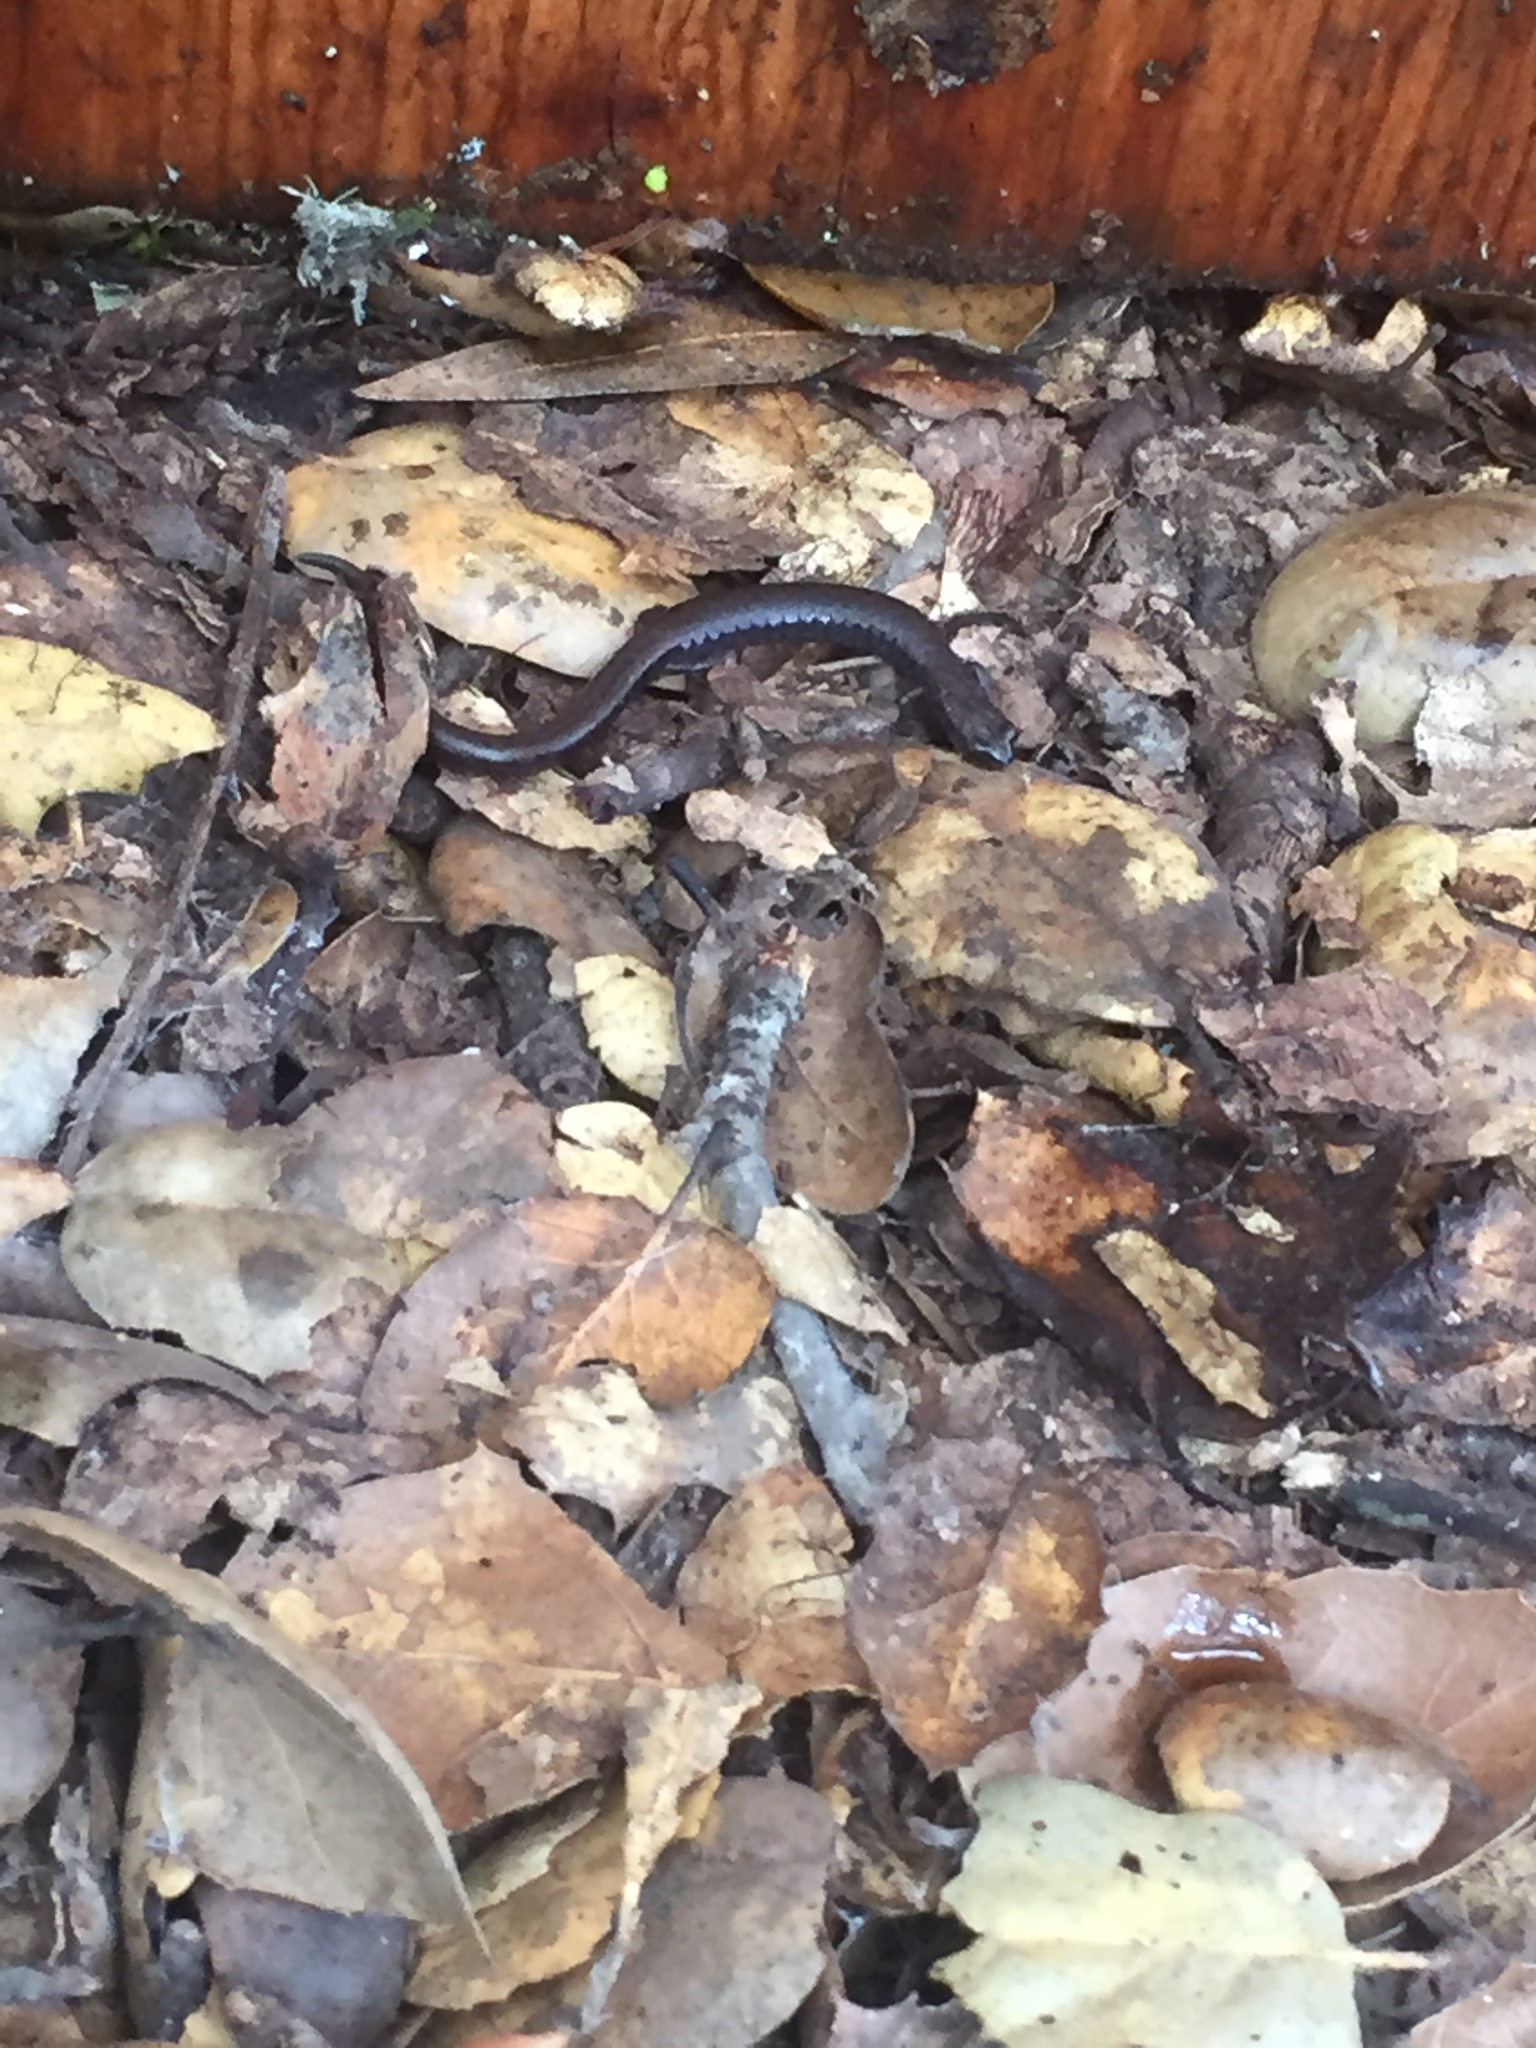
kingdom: Animalia
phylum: Chordata
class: Amphibia
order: Caudata
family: Plethodontidae
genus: Batrachoseps
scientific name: Batrachoseps attenuatus
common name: California slender salamander
